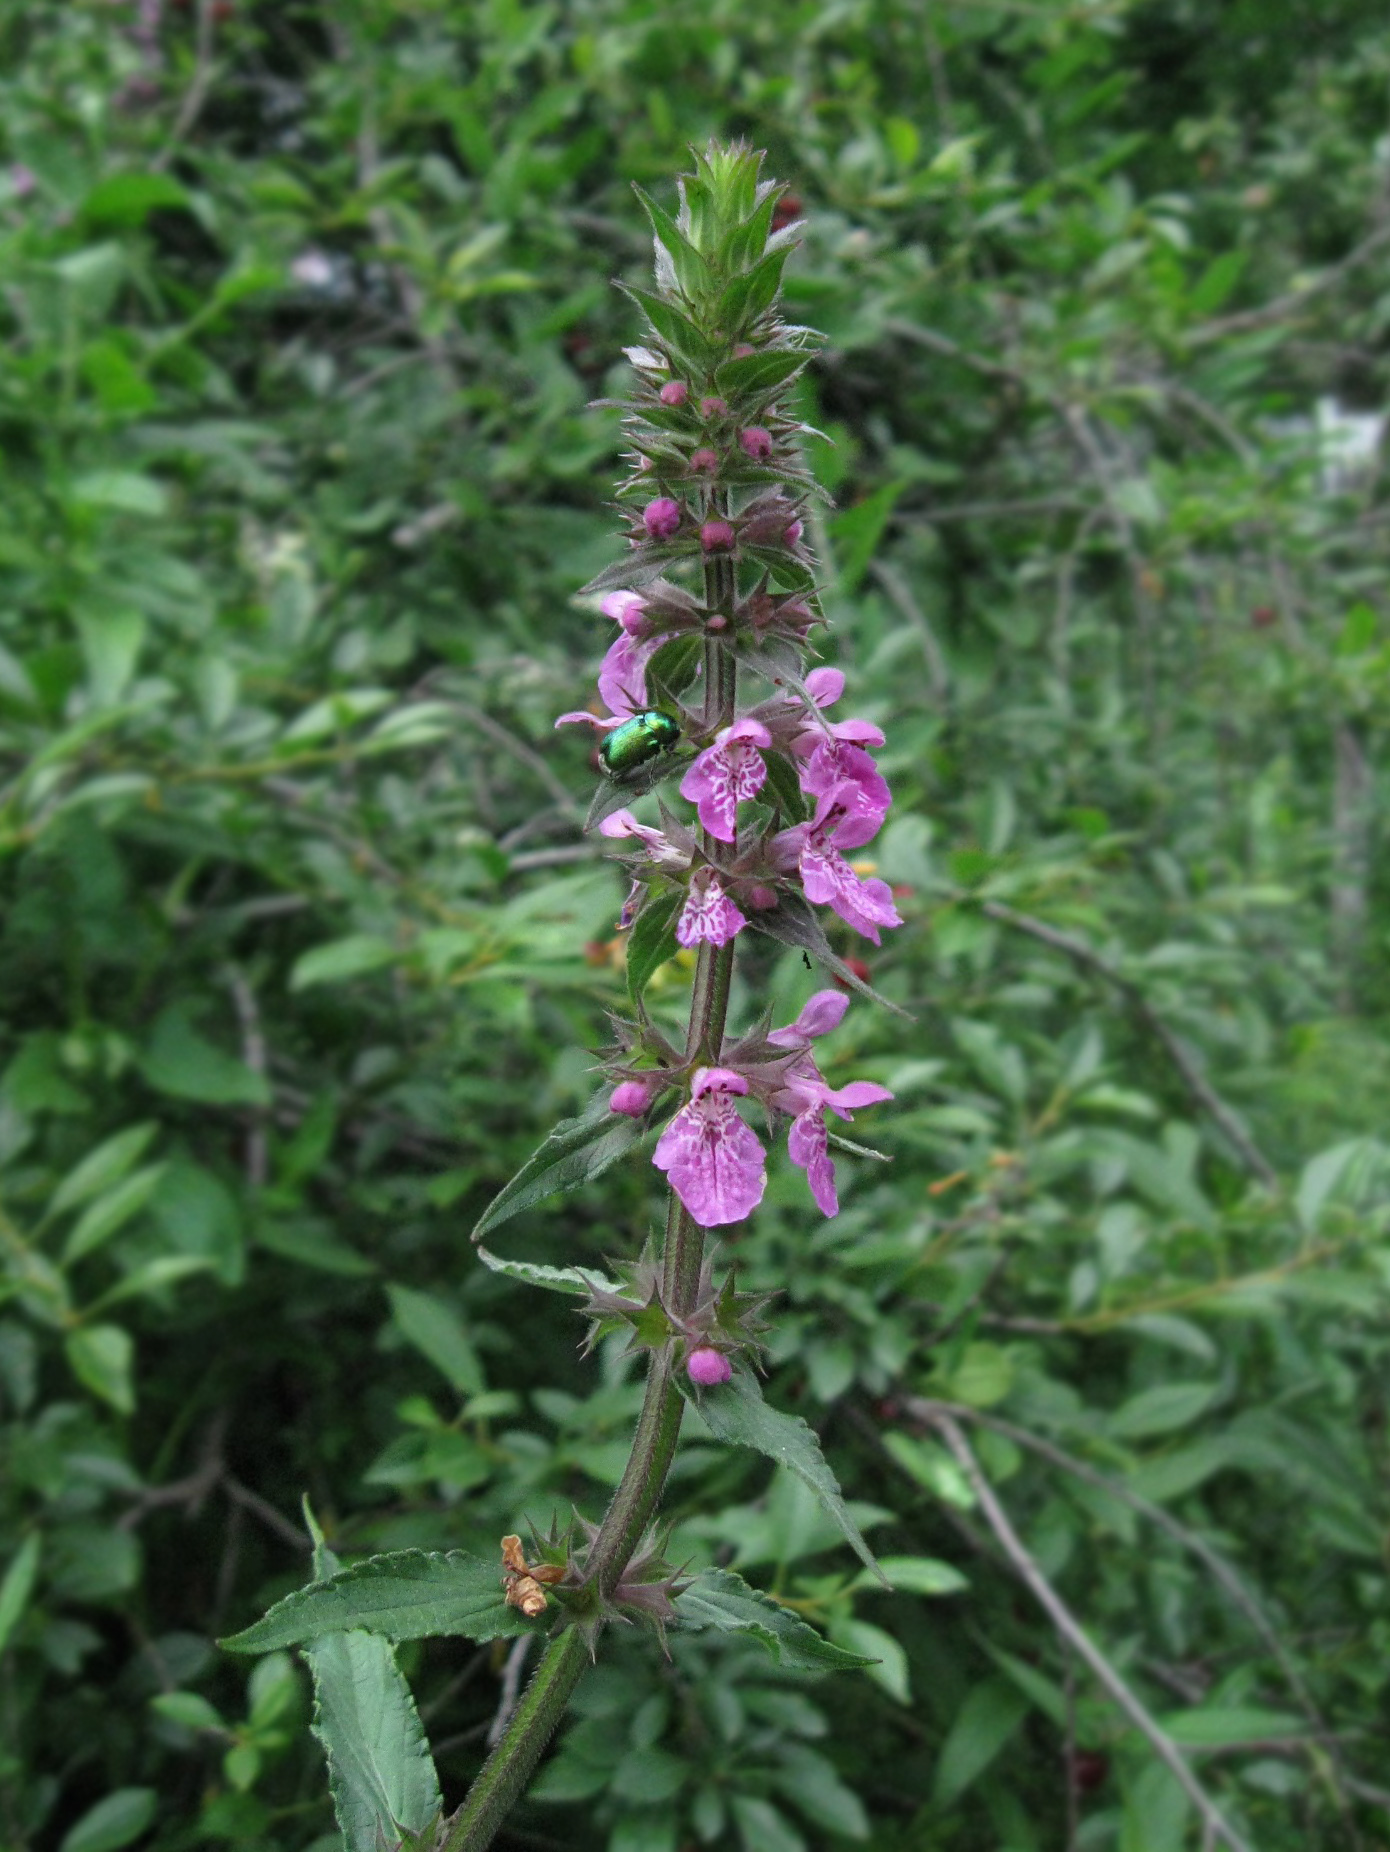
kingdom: Plantae
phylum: Tracheophyta
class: Magnoliopsida
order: Lamiales
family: Lamiaceae
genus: Stachys
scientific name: Stachys palustris
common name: Marsh woundwort
